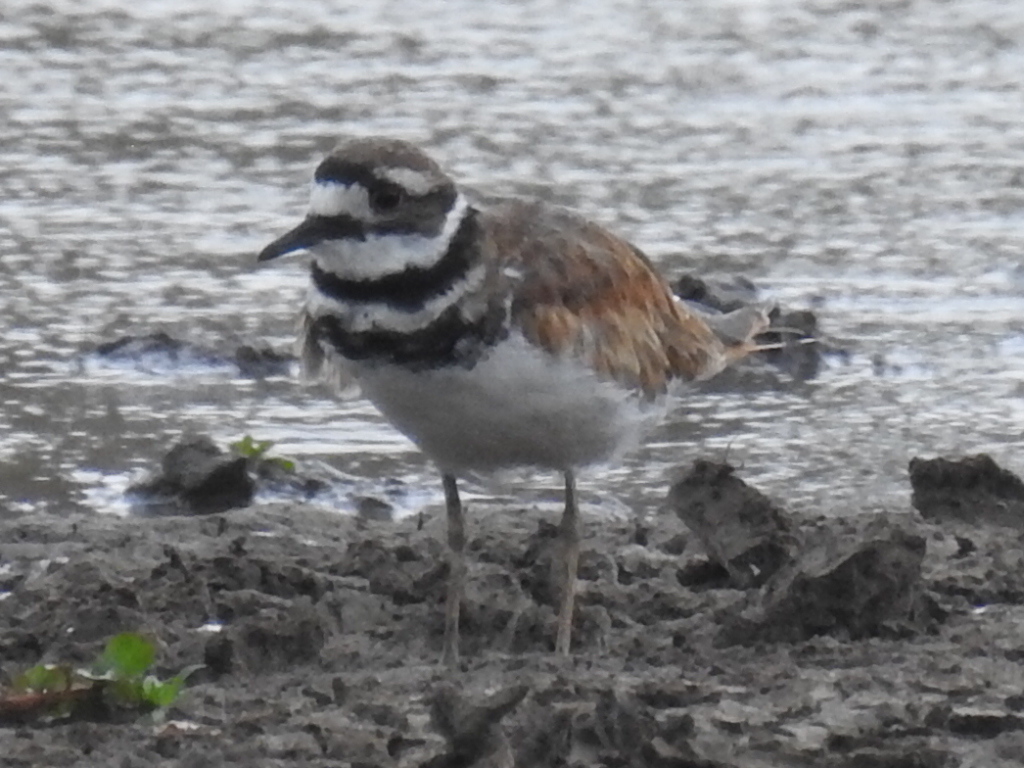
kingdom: Animalia
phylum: Chordata
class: Aves
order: Charadriiformes
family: Charadriidae
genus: Charadrius
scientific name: Charadrius vociferus
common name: Killdeer
